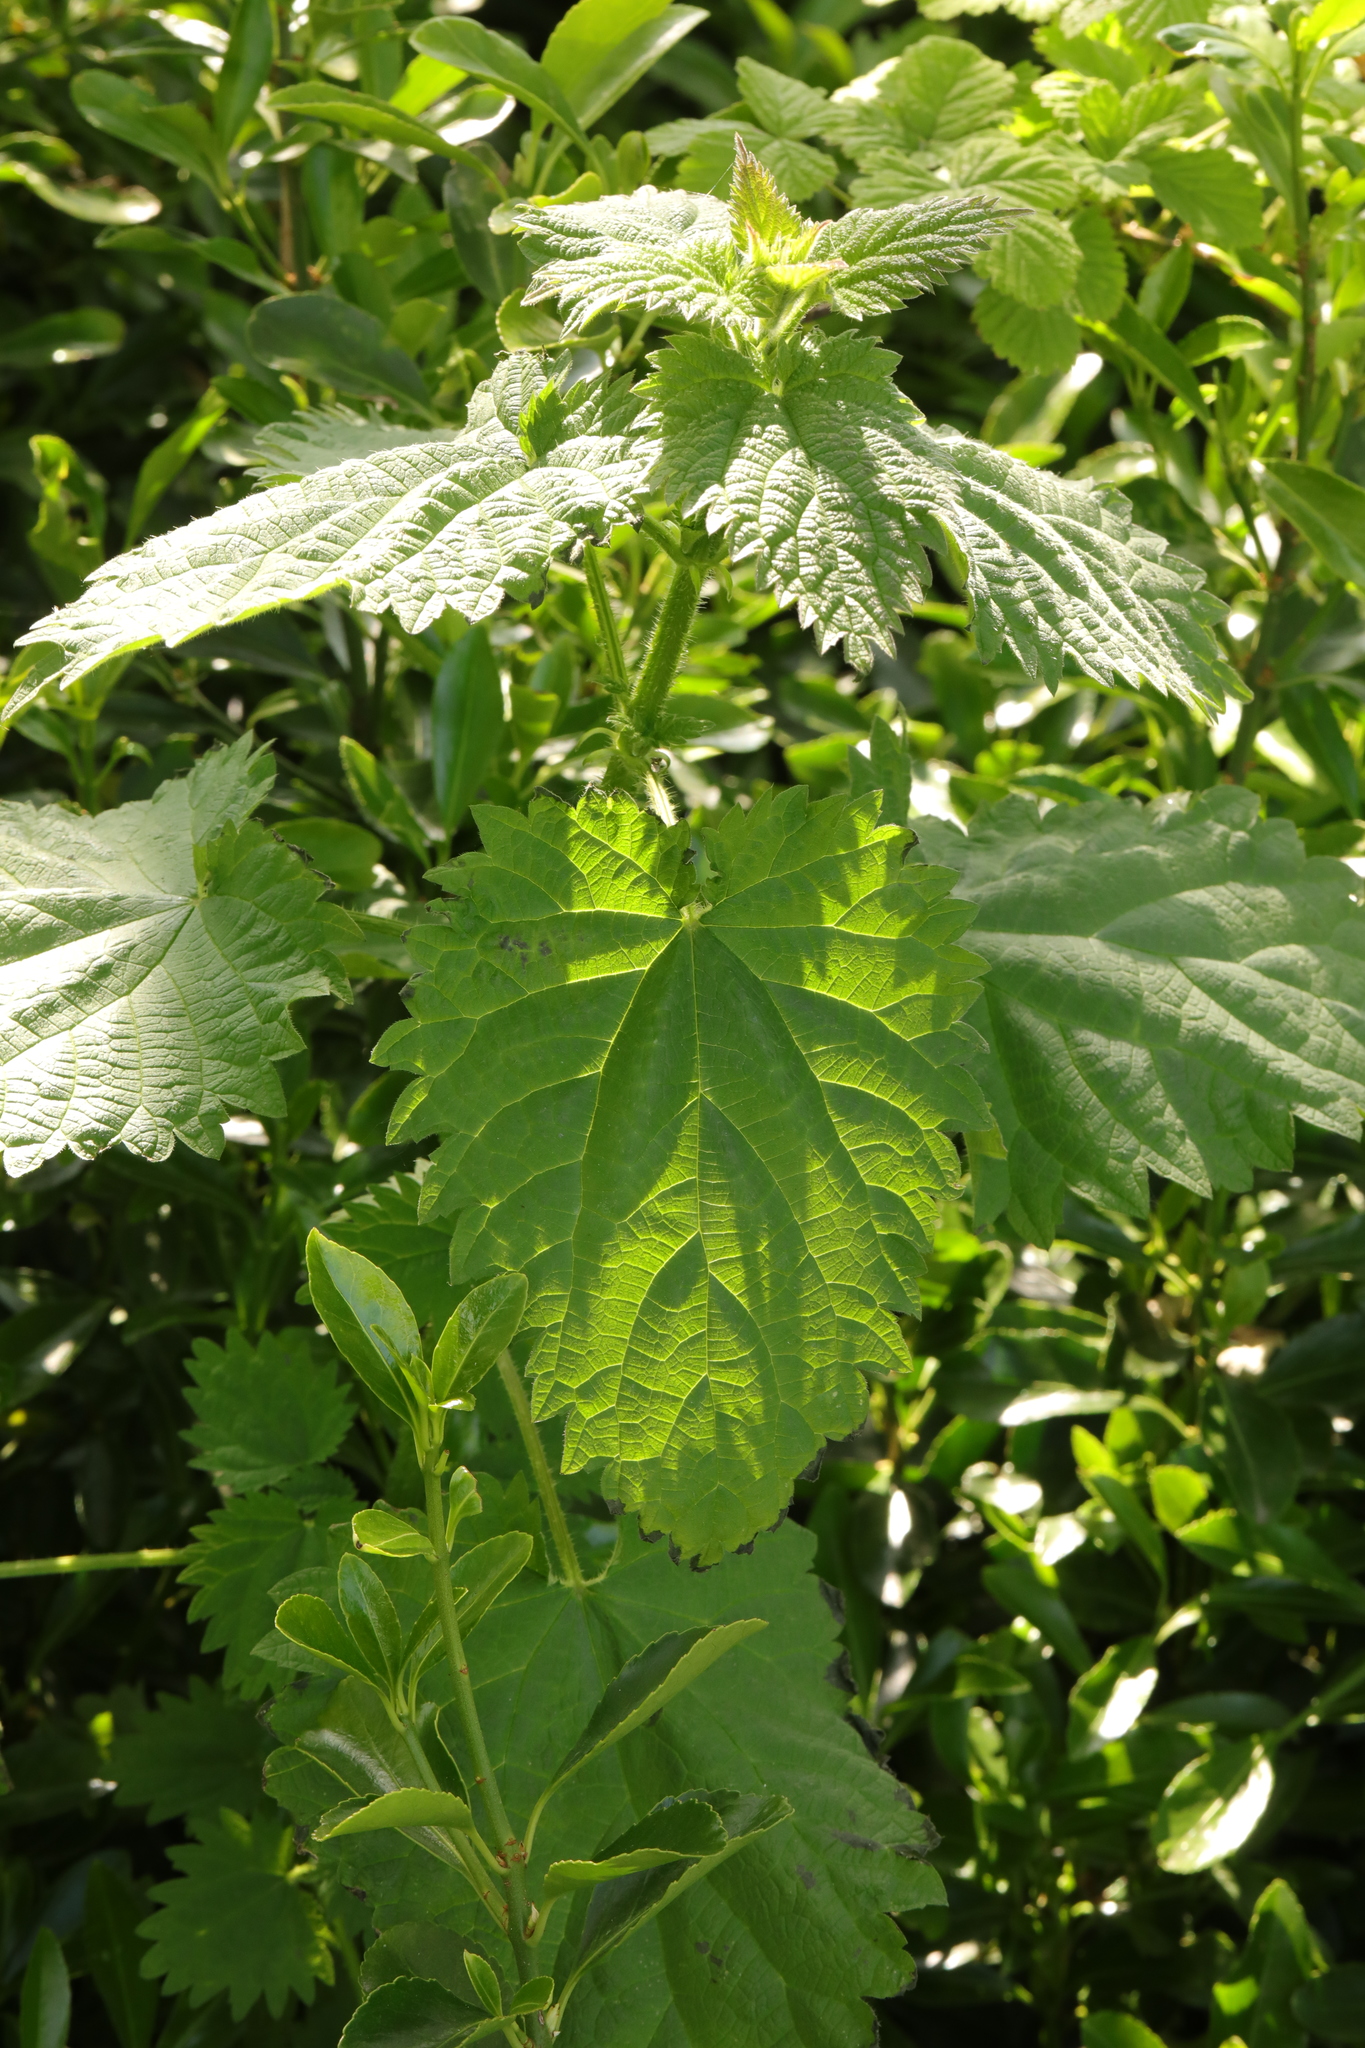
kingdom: Plantae
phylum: Tracheophyta
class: Magnoliopsida
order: Rosales
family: Urticaceae
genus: Urtica
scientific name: Urtica dioica
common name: Common nettle
